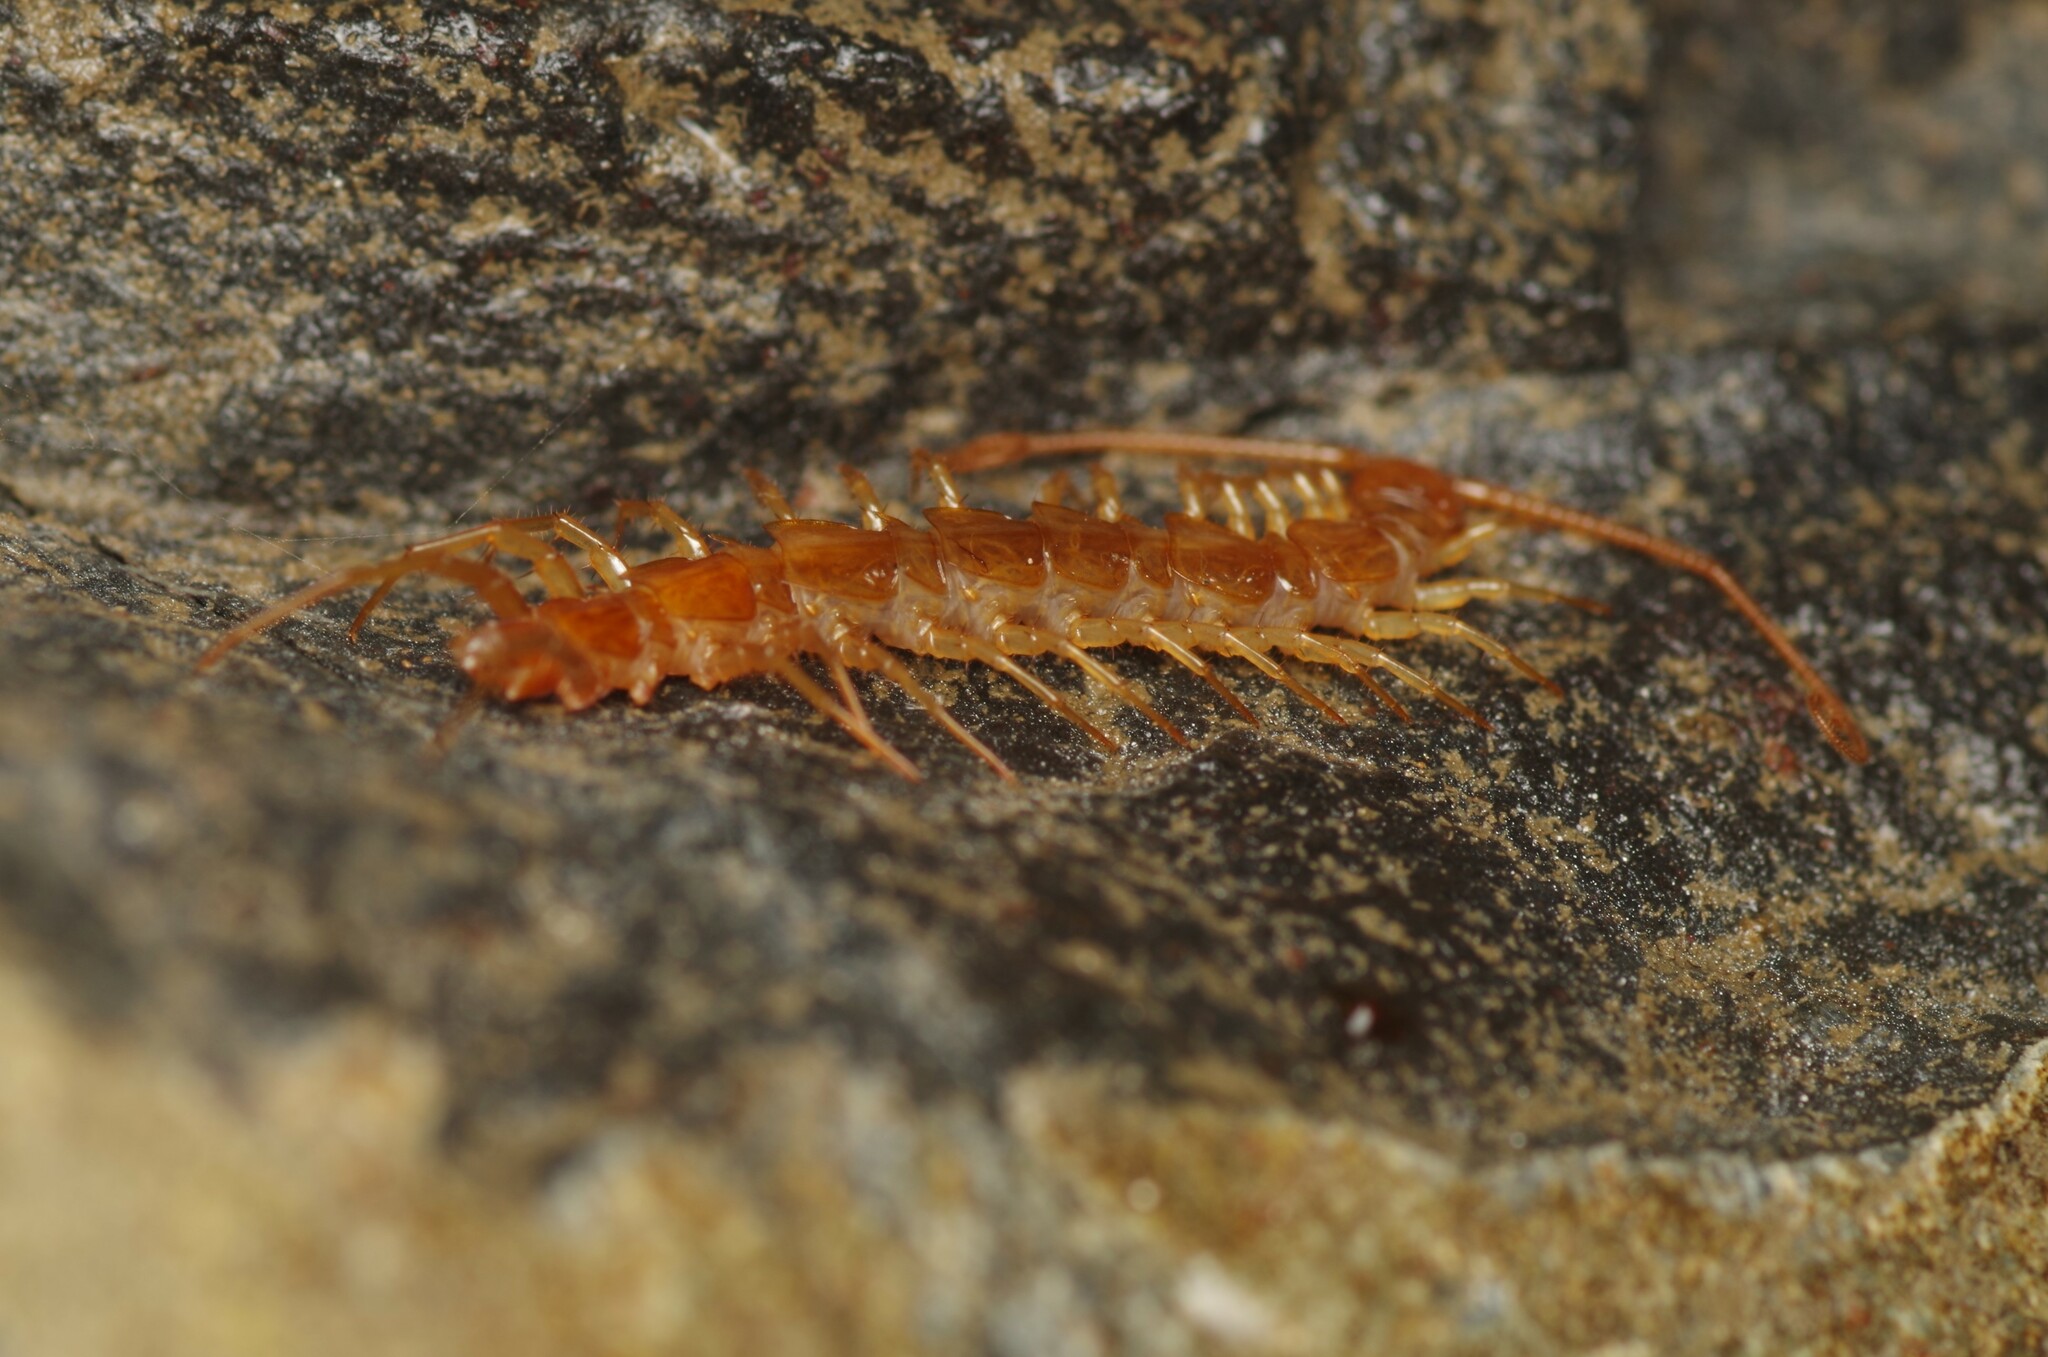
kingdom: Animalia
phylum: Arthropoda
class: Chilopoda
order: Lithobiomorpha
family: Lithobiidae
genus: Lithobius
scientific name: Lithobius
